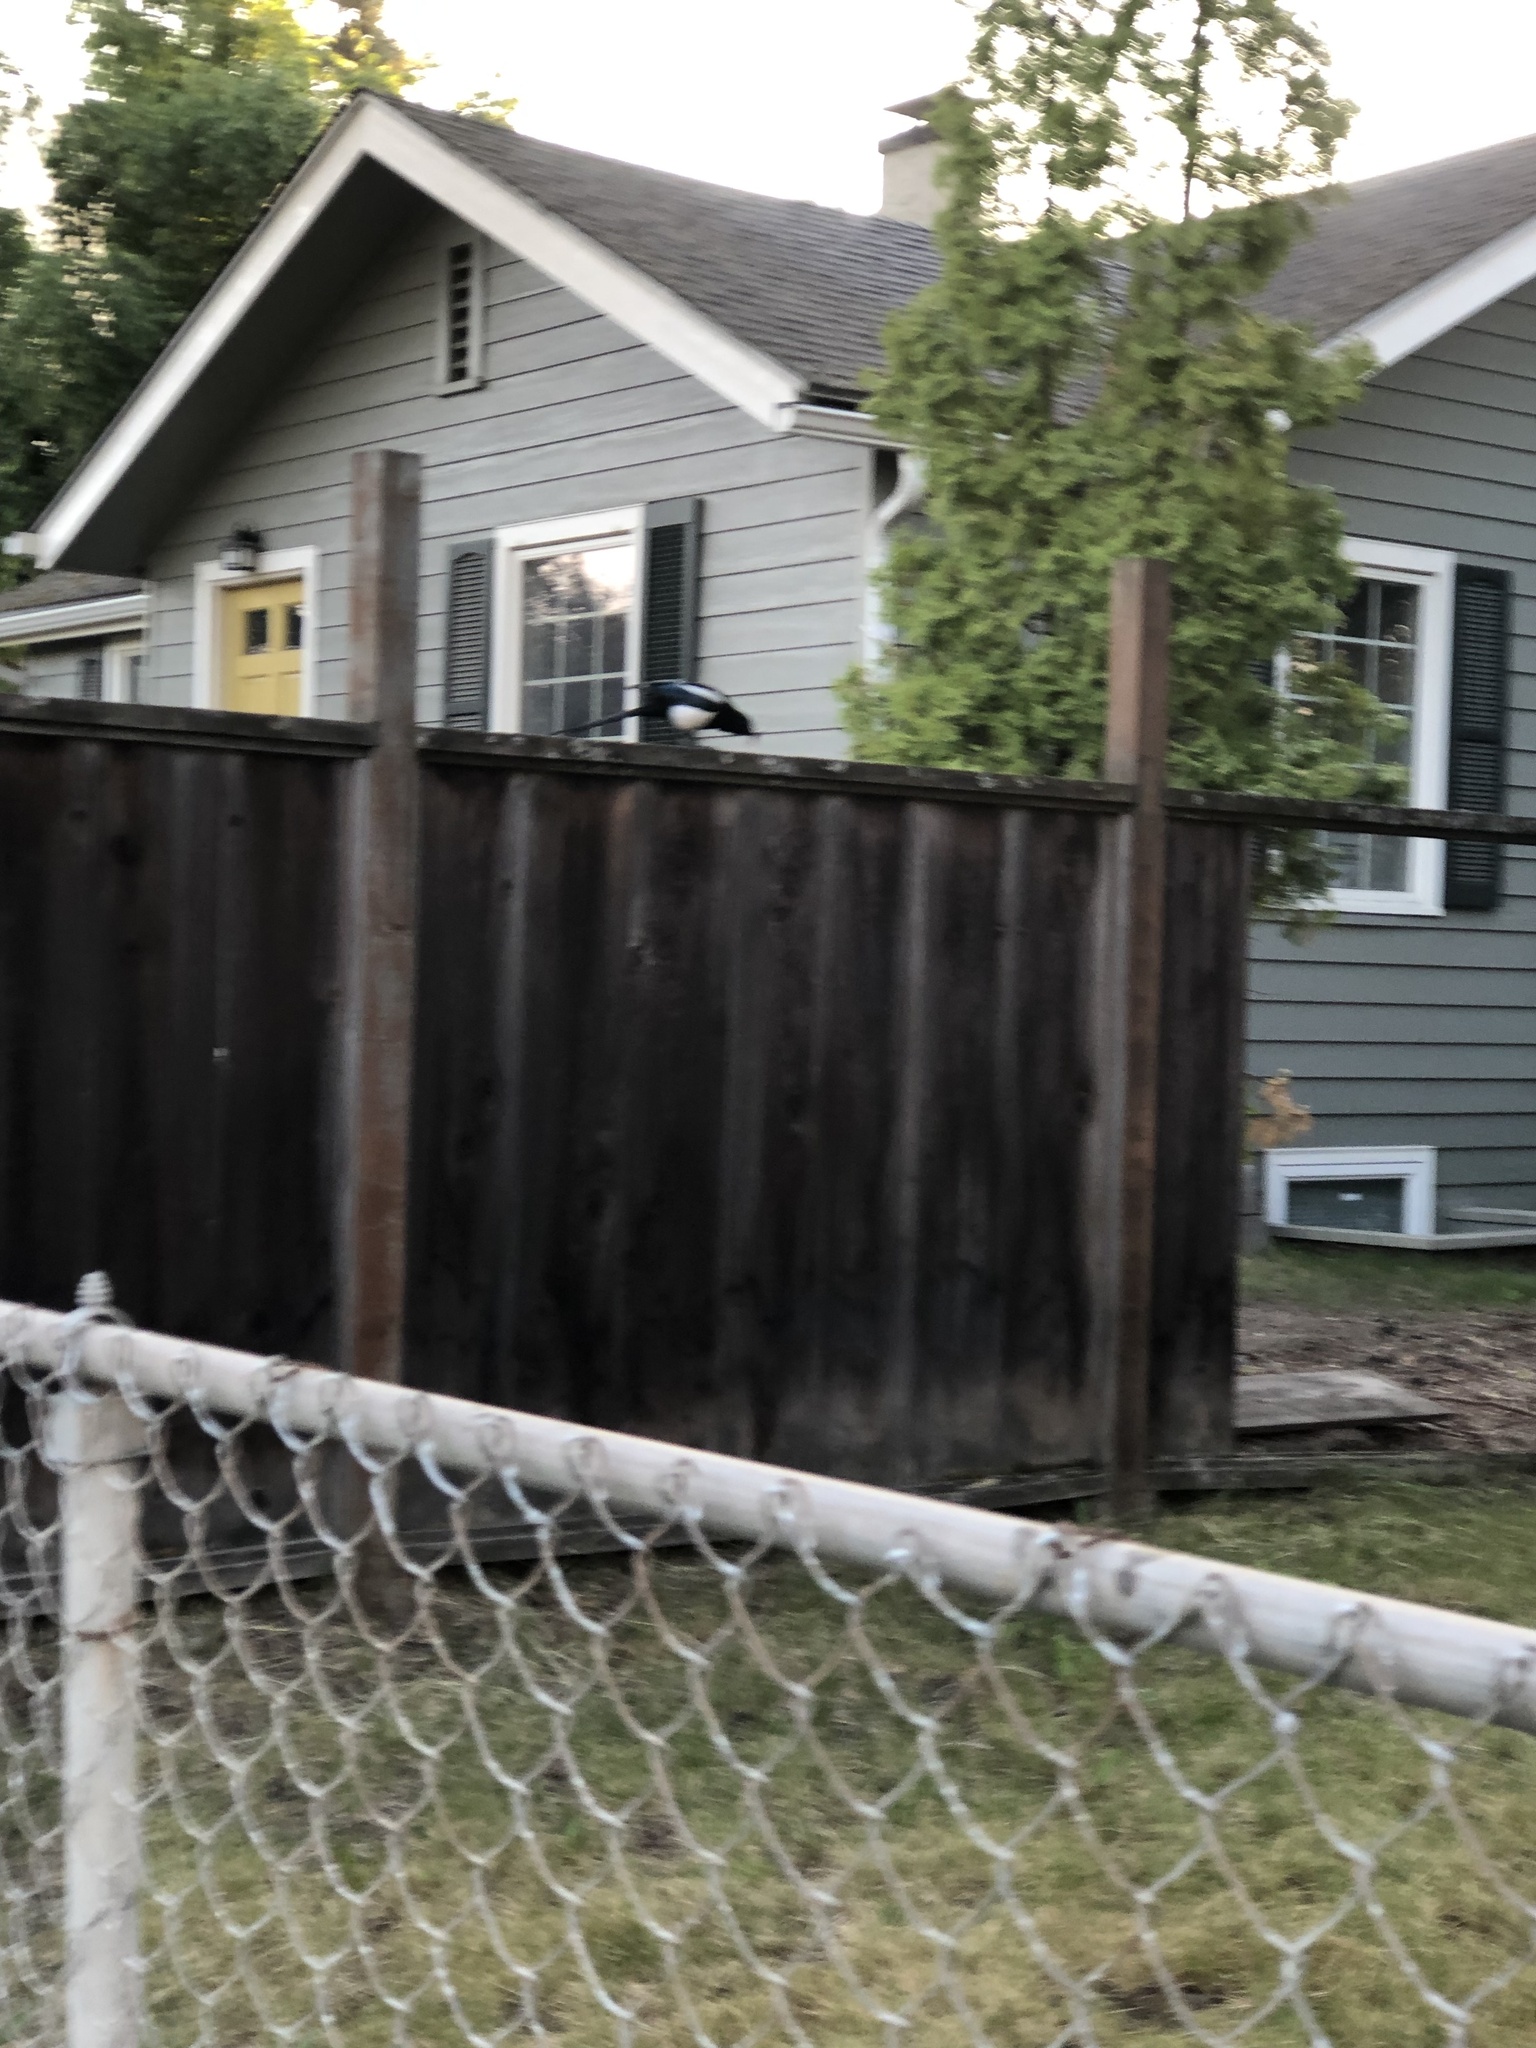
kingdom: Animalia
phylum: Chordata
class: Aves
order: Passeriformes
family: Corvidae
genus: Pica
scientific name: Pica hudsonia
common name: Black-billed magpie
